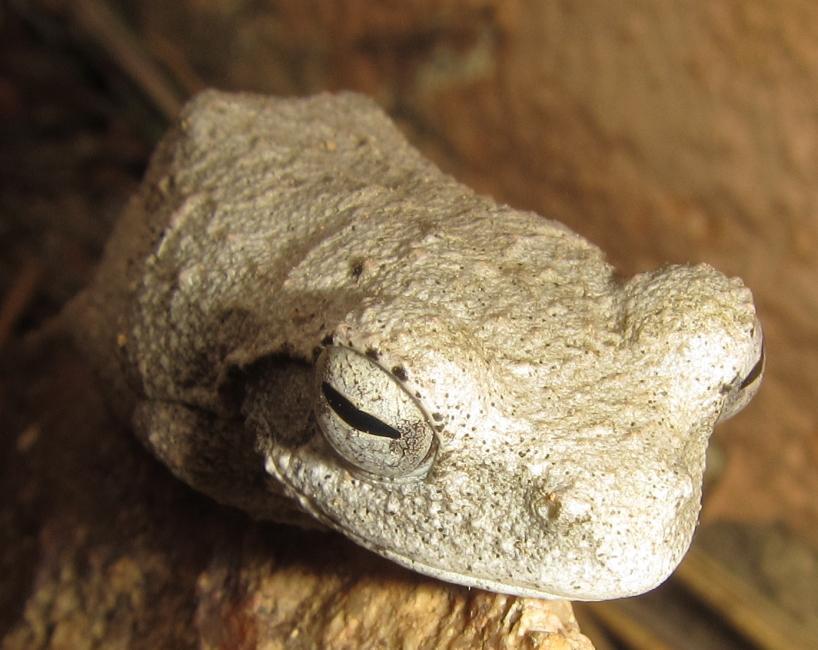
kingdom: Animalia
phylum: Chordata
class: Amphibia
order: Anura
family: Rhacophoridae
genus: Chiromantis
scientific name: Chiromantis xerampelina
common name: African gray treefrog
